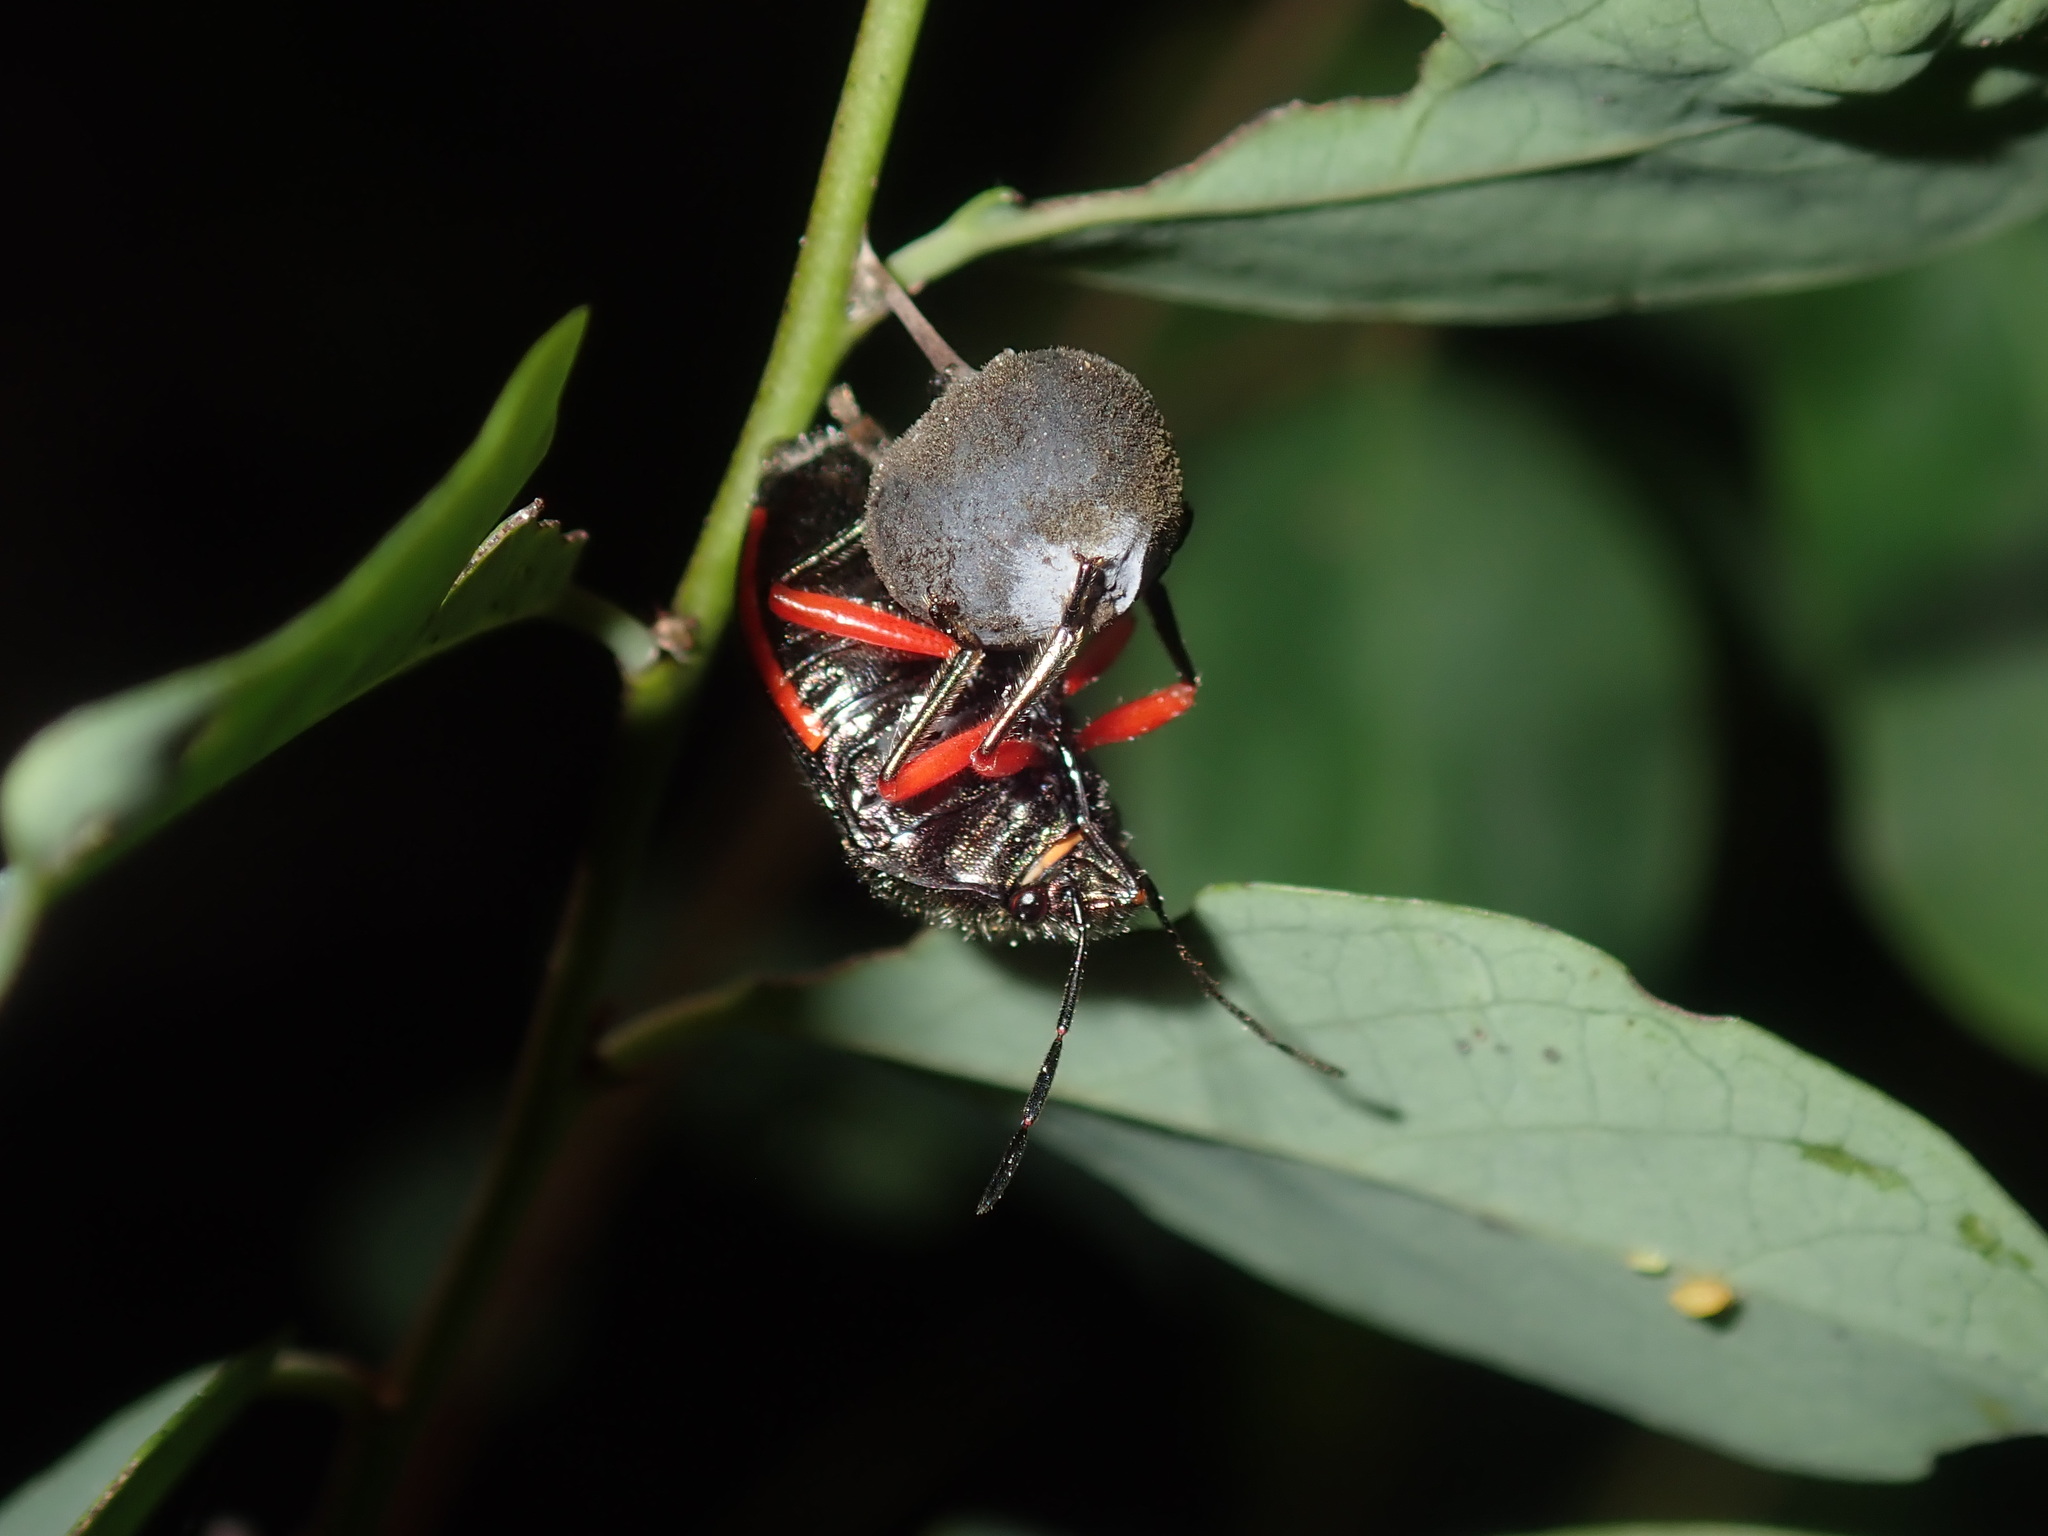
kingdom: Animalia
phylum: Arthropoda
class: Insecta
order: Hemiptera
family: Scutelleridae
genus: Lampromicra
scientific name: Lampromicra
